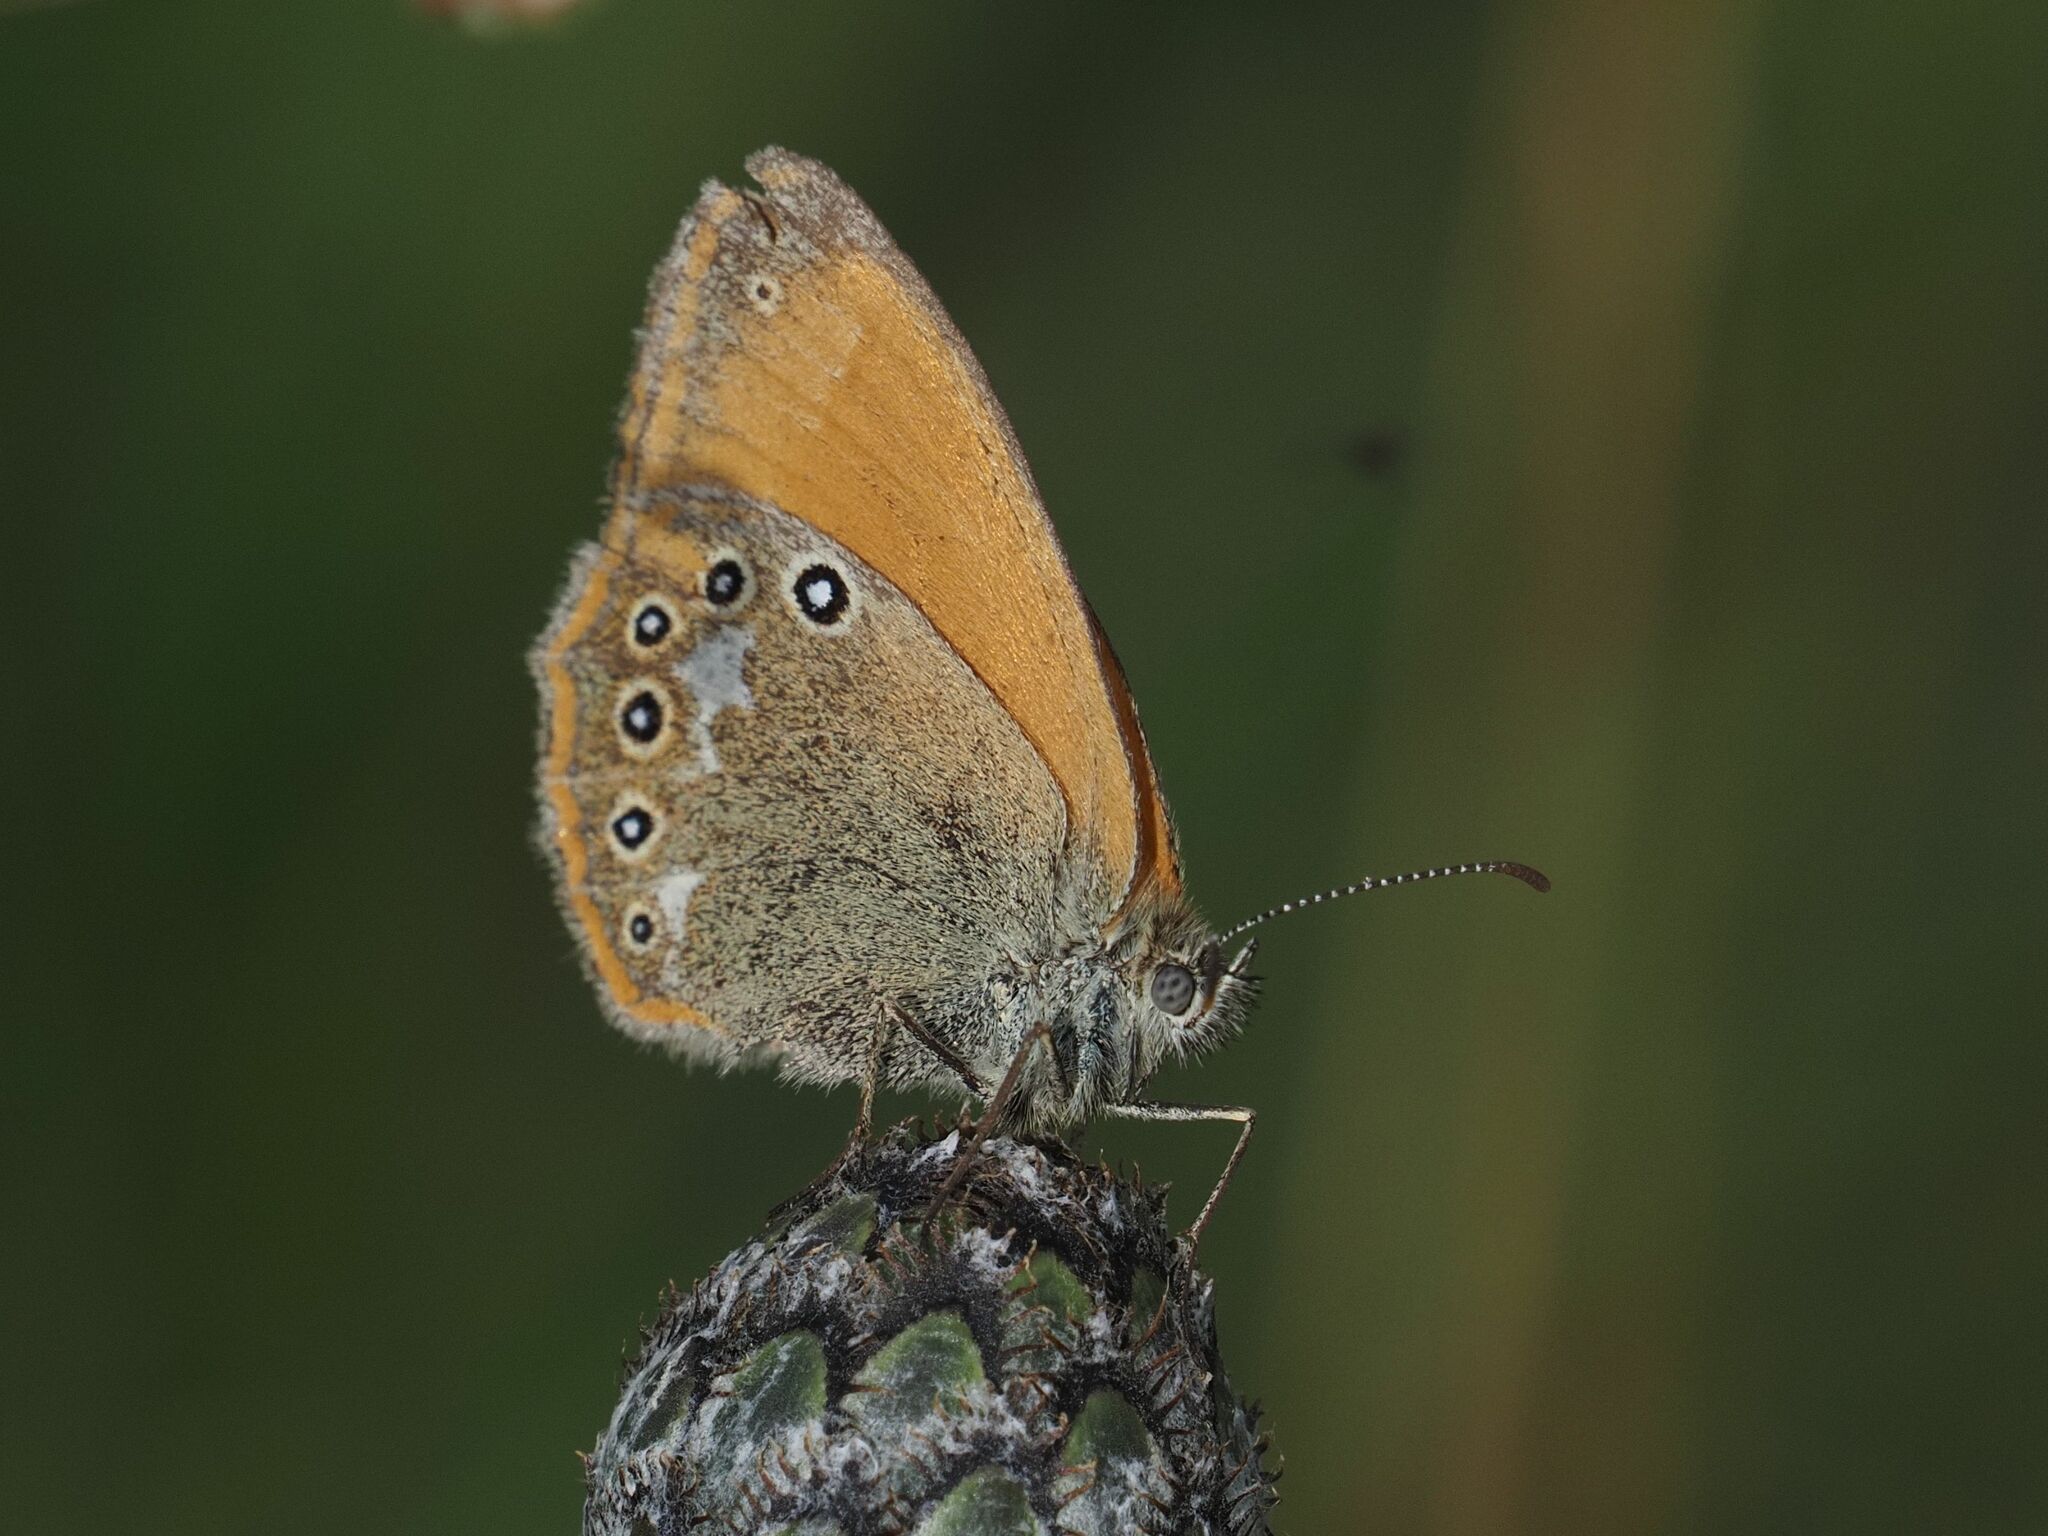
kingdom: Animalia
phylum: Arthropoda
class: Insecta
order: Lepidoptera
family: Nymphalidae
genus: Coenonympha
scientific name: Coenonympha iphis
